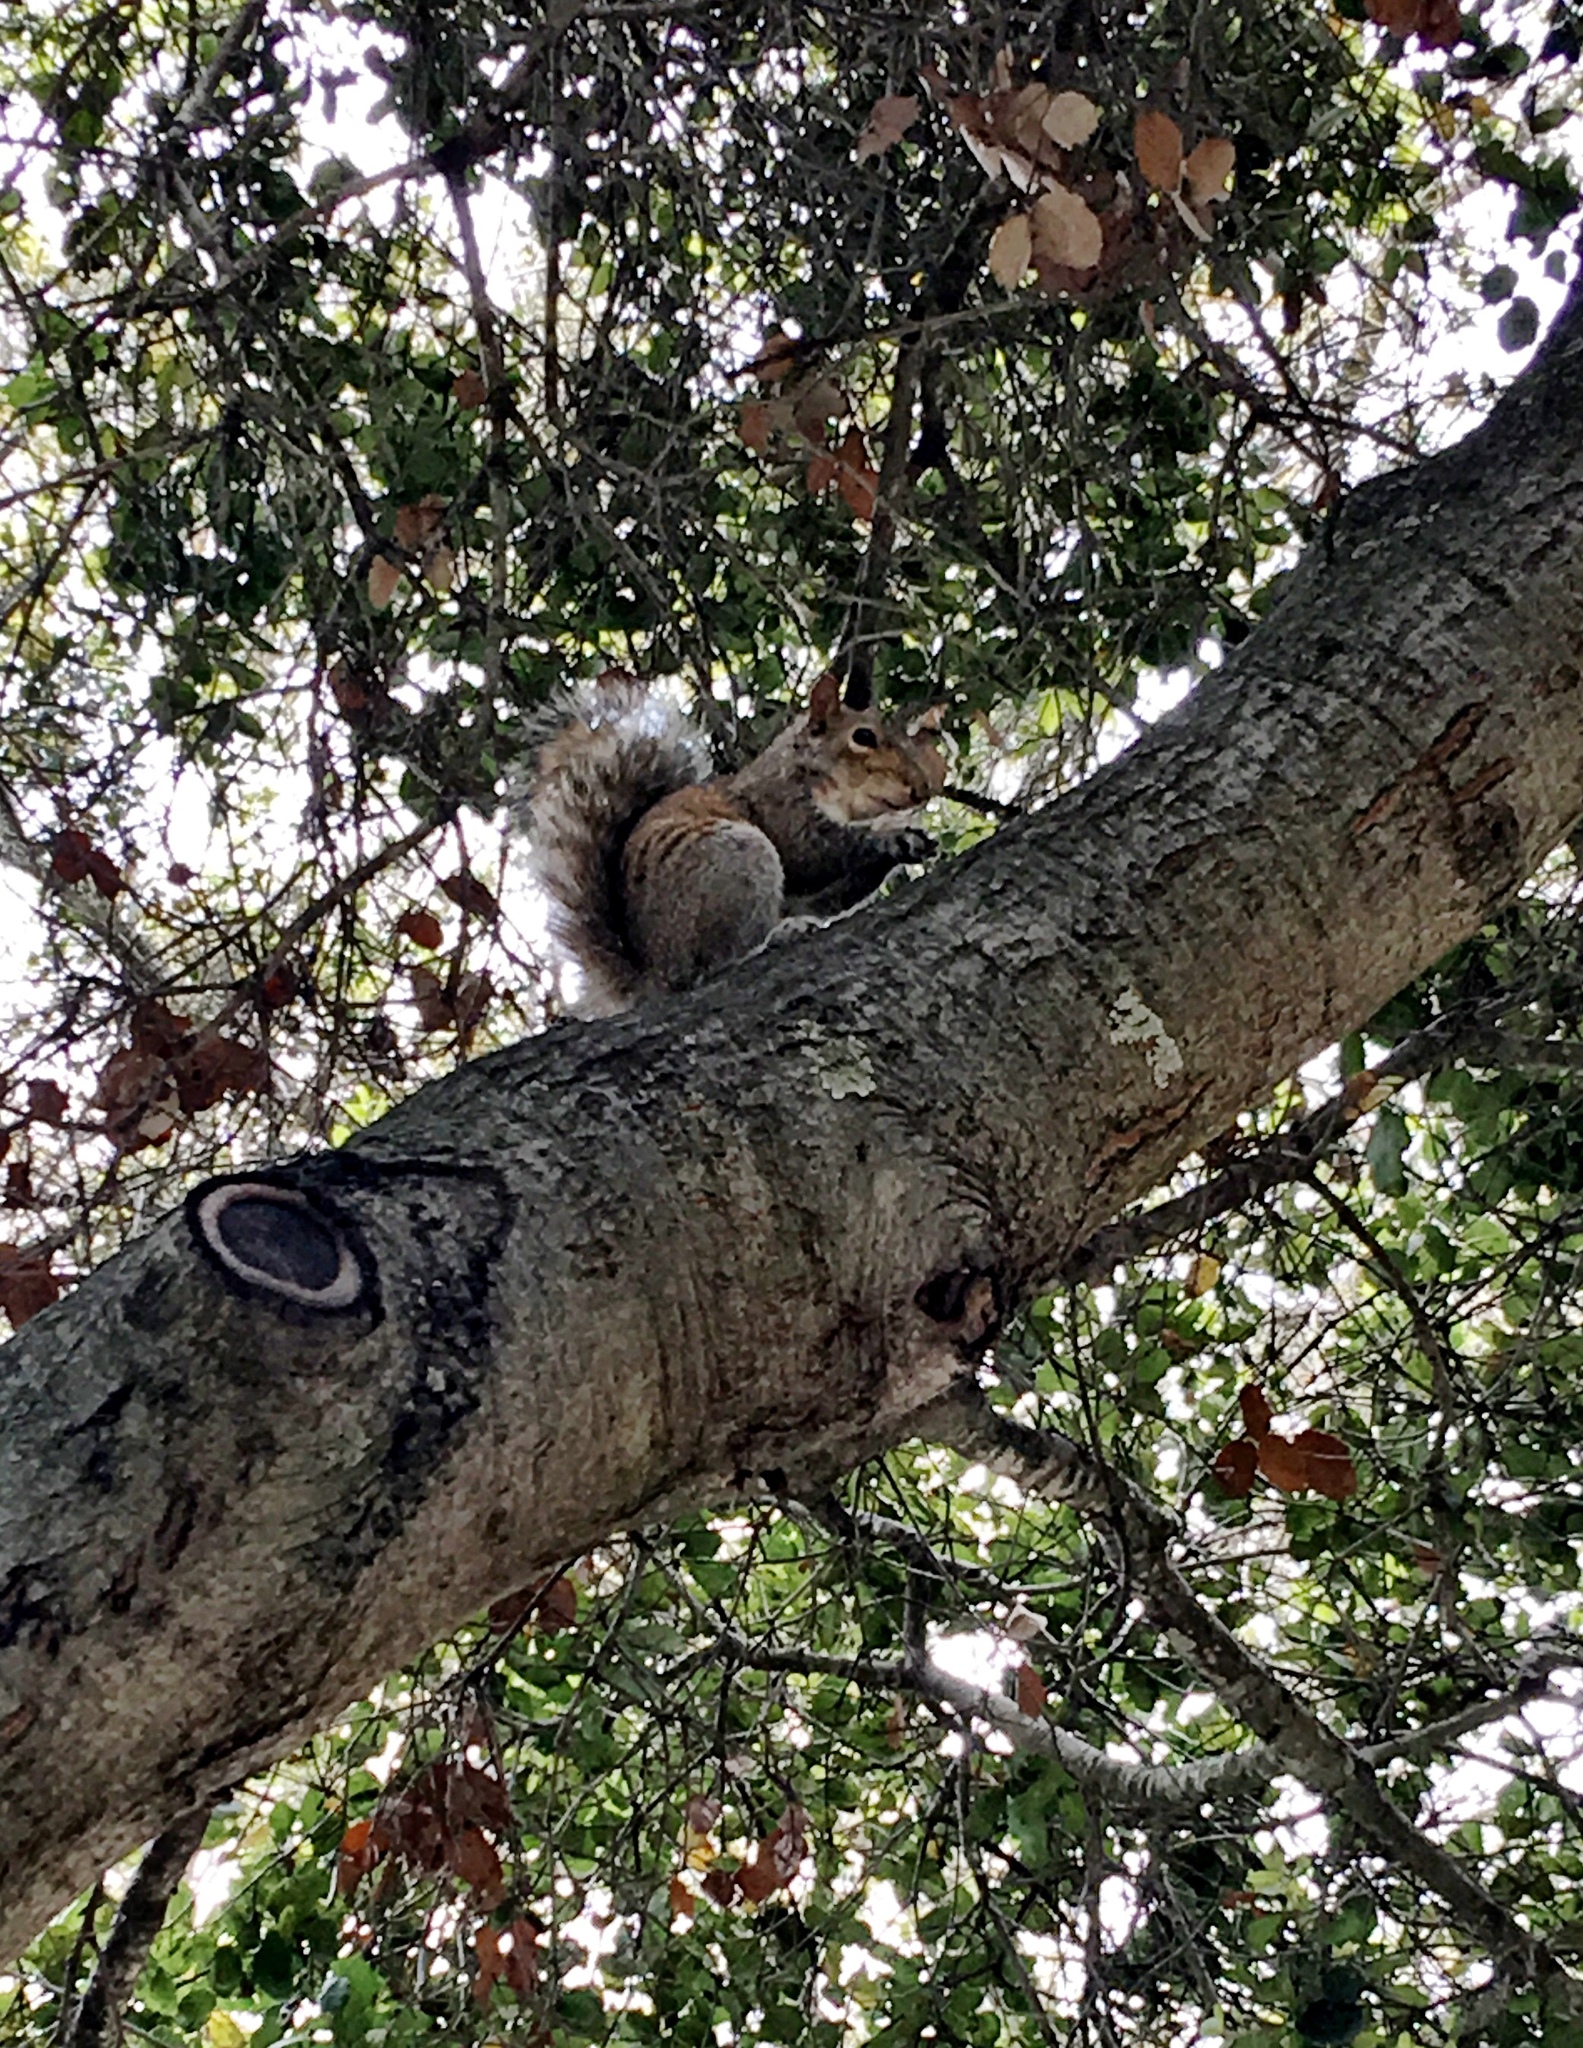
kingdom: Animalia
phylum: Chordata
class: Mammalia
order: Rodentia
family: Sciuridae
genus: Sciurus
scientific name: Sciurus carolinensis
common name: Eastern gray squirrel
